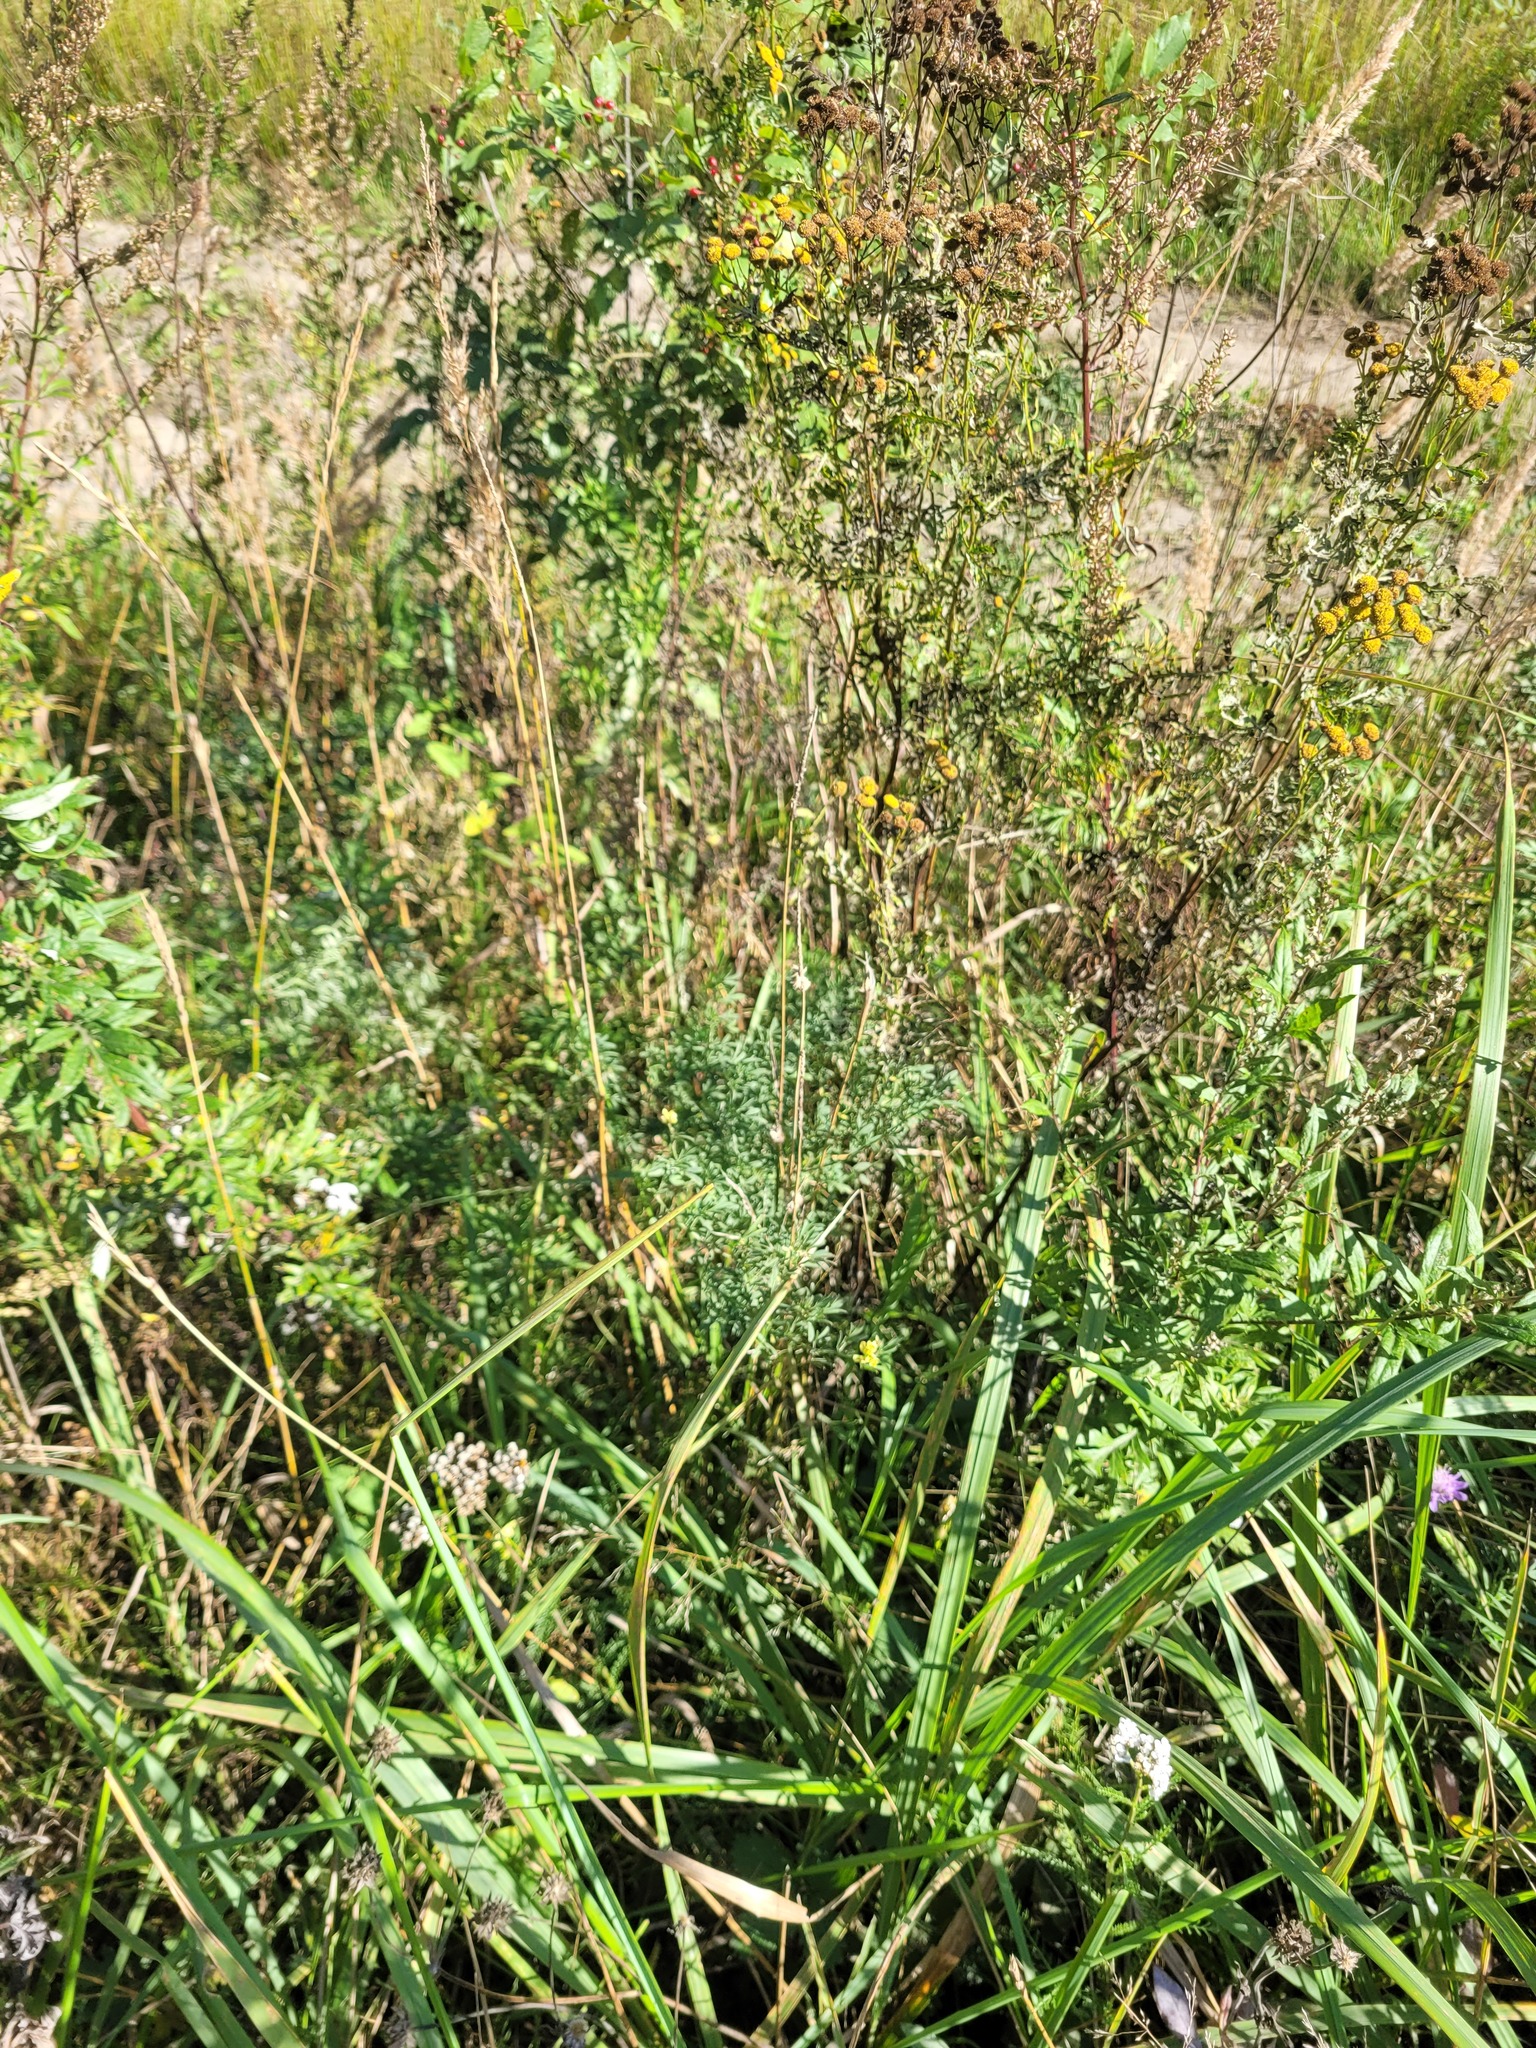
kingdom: Plantae
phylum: Tracheophyta
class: Magnoliopsida
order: Asterales
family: Asteraceae
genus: Tanacetum
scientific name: Tanacetum vulgare
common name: Common tansy
